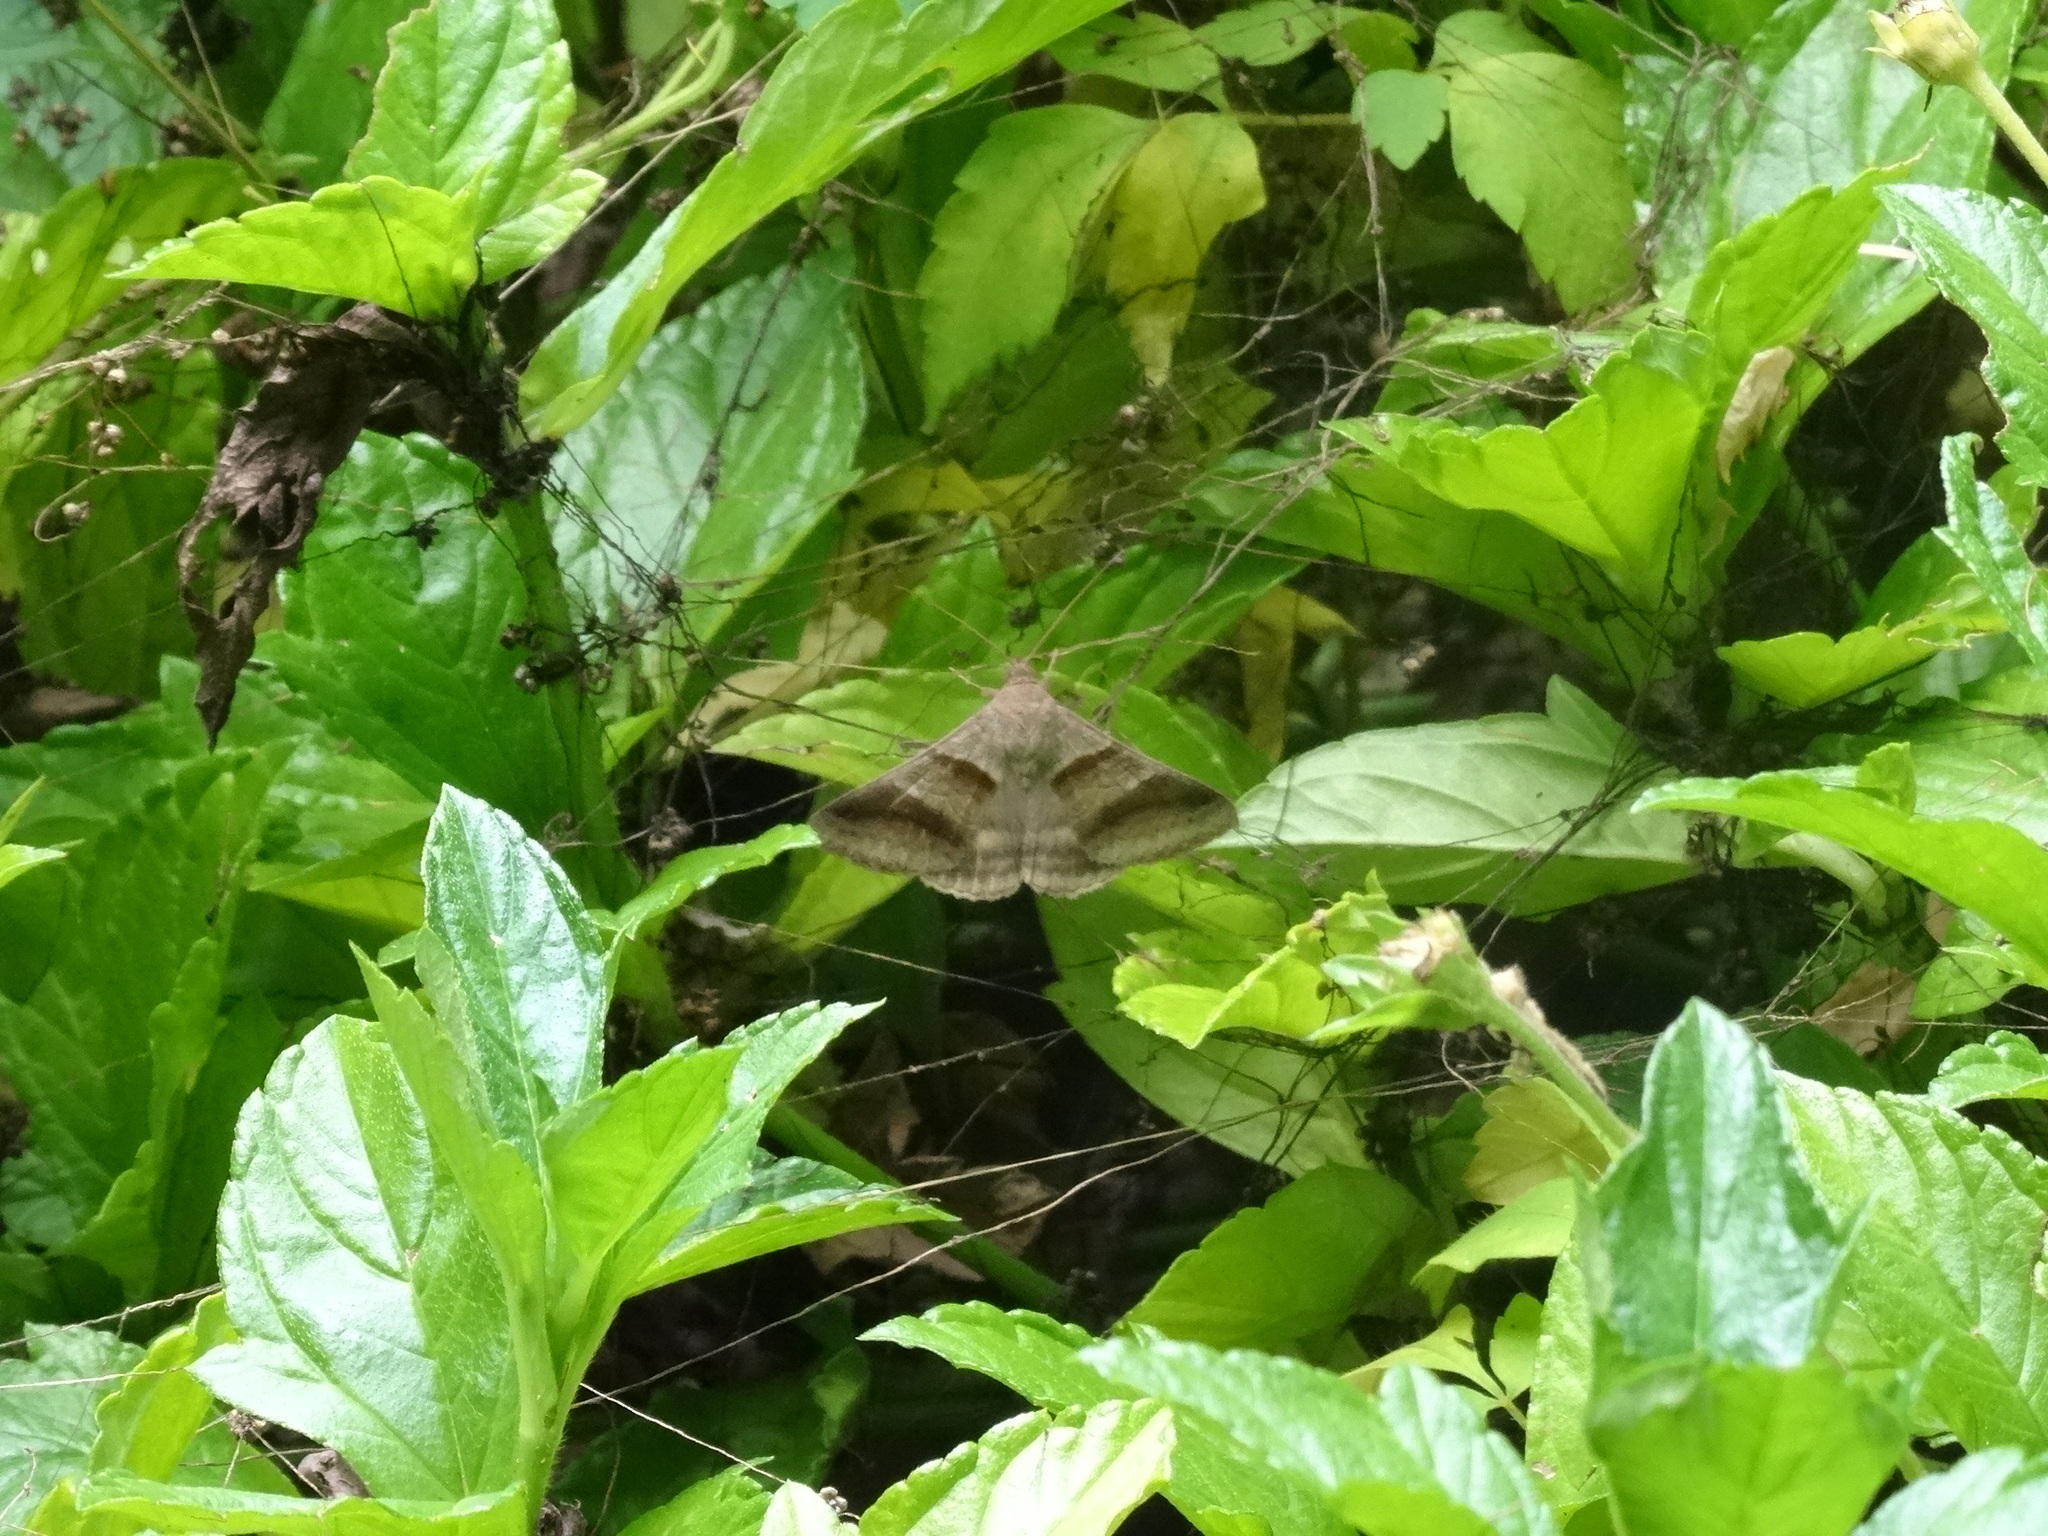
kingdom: Animalia
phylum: Arthropoda
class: Insecta
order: Lepidoptera
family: Erebidae
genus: Mocis
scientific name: Mocis trifasciata
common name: Triple-barred
